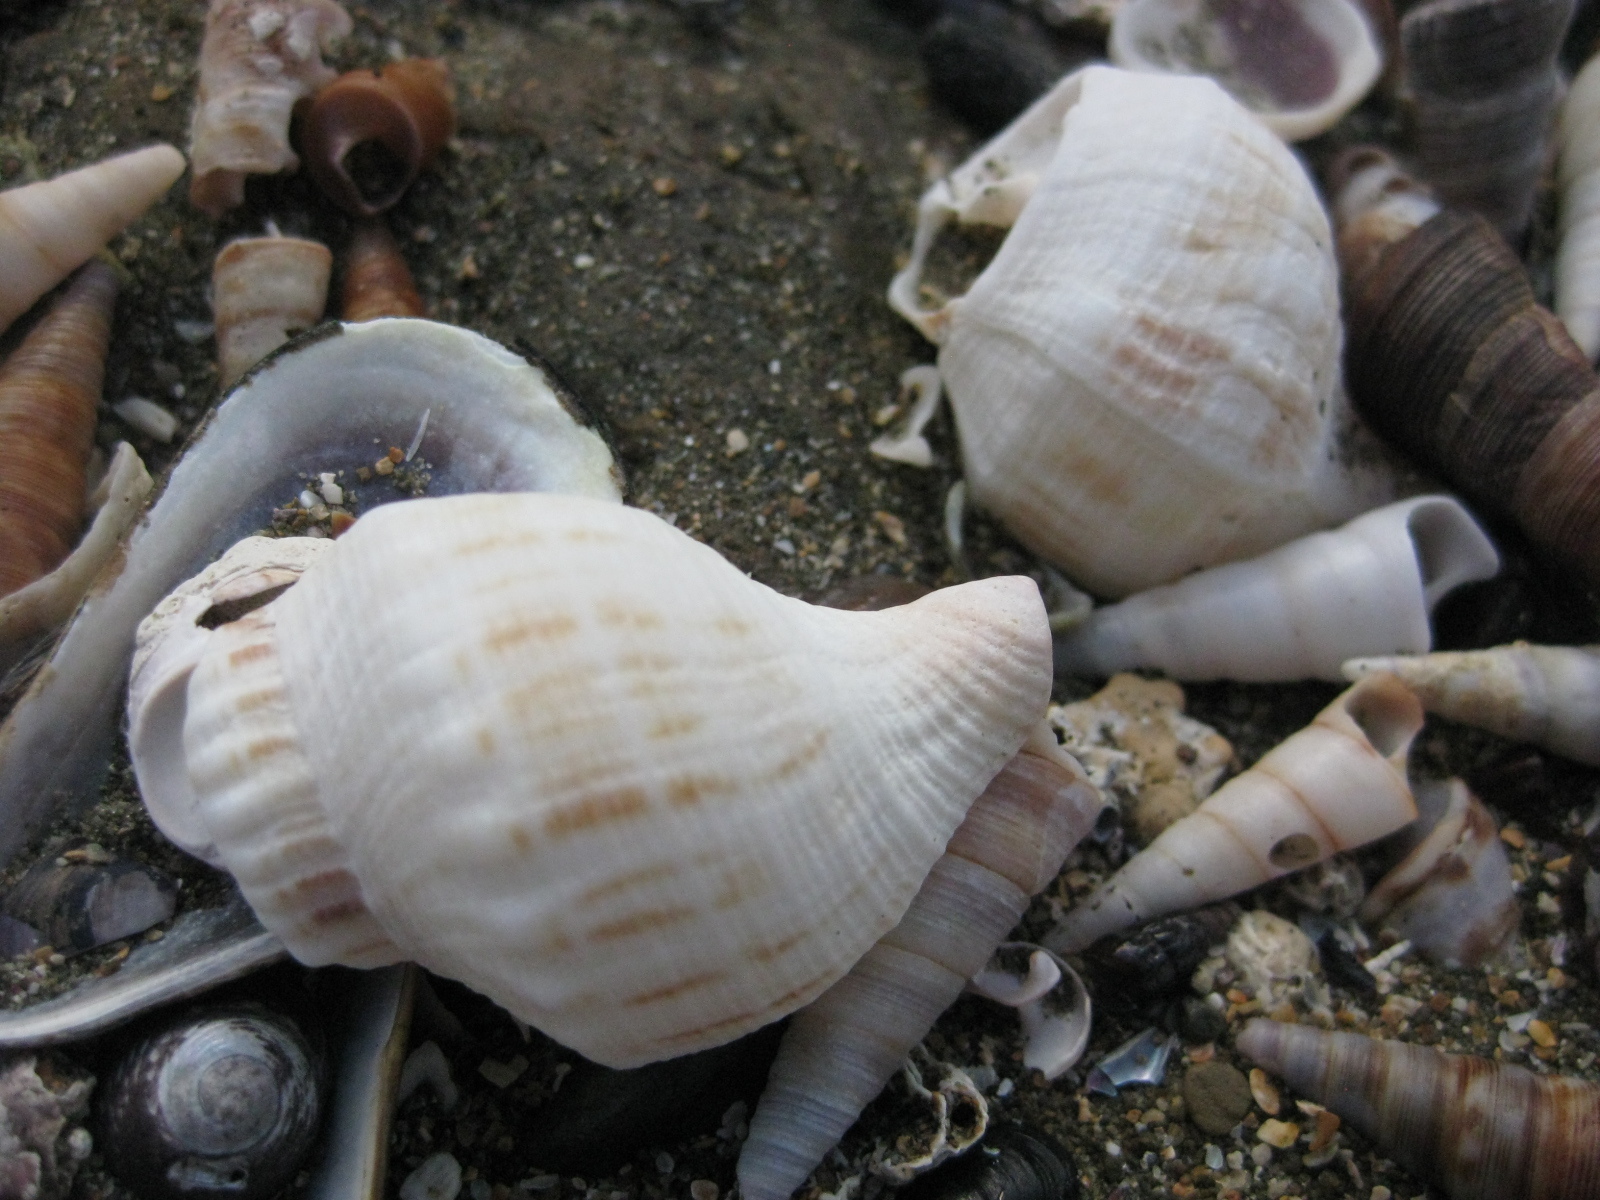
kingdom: Animalia
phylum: Mollusca
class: Gastropoda
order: Neogastropoda
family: Prosiphonidae
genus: Austrofusus
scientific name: Austrofusus glans
